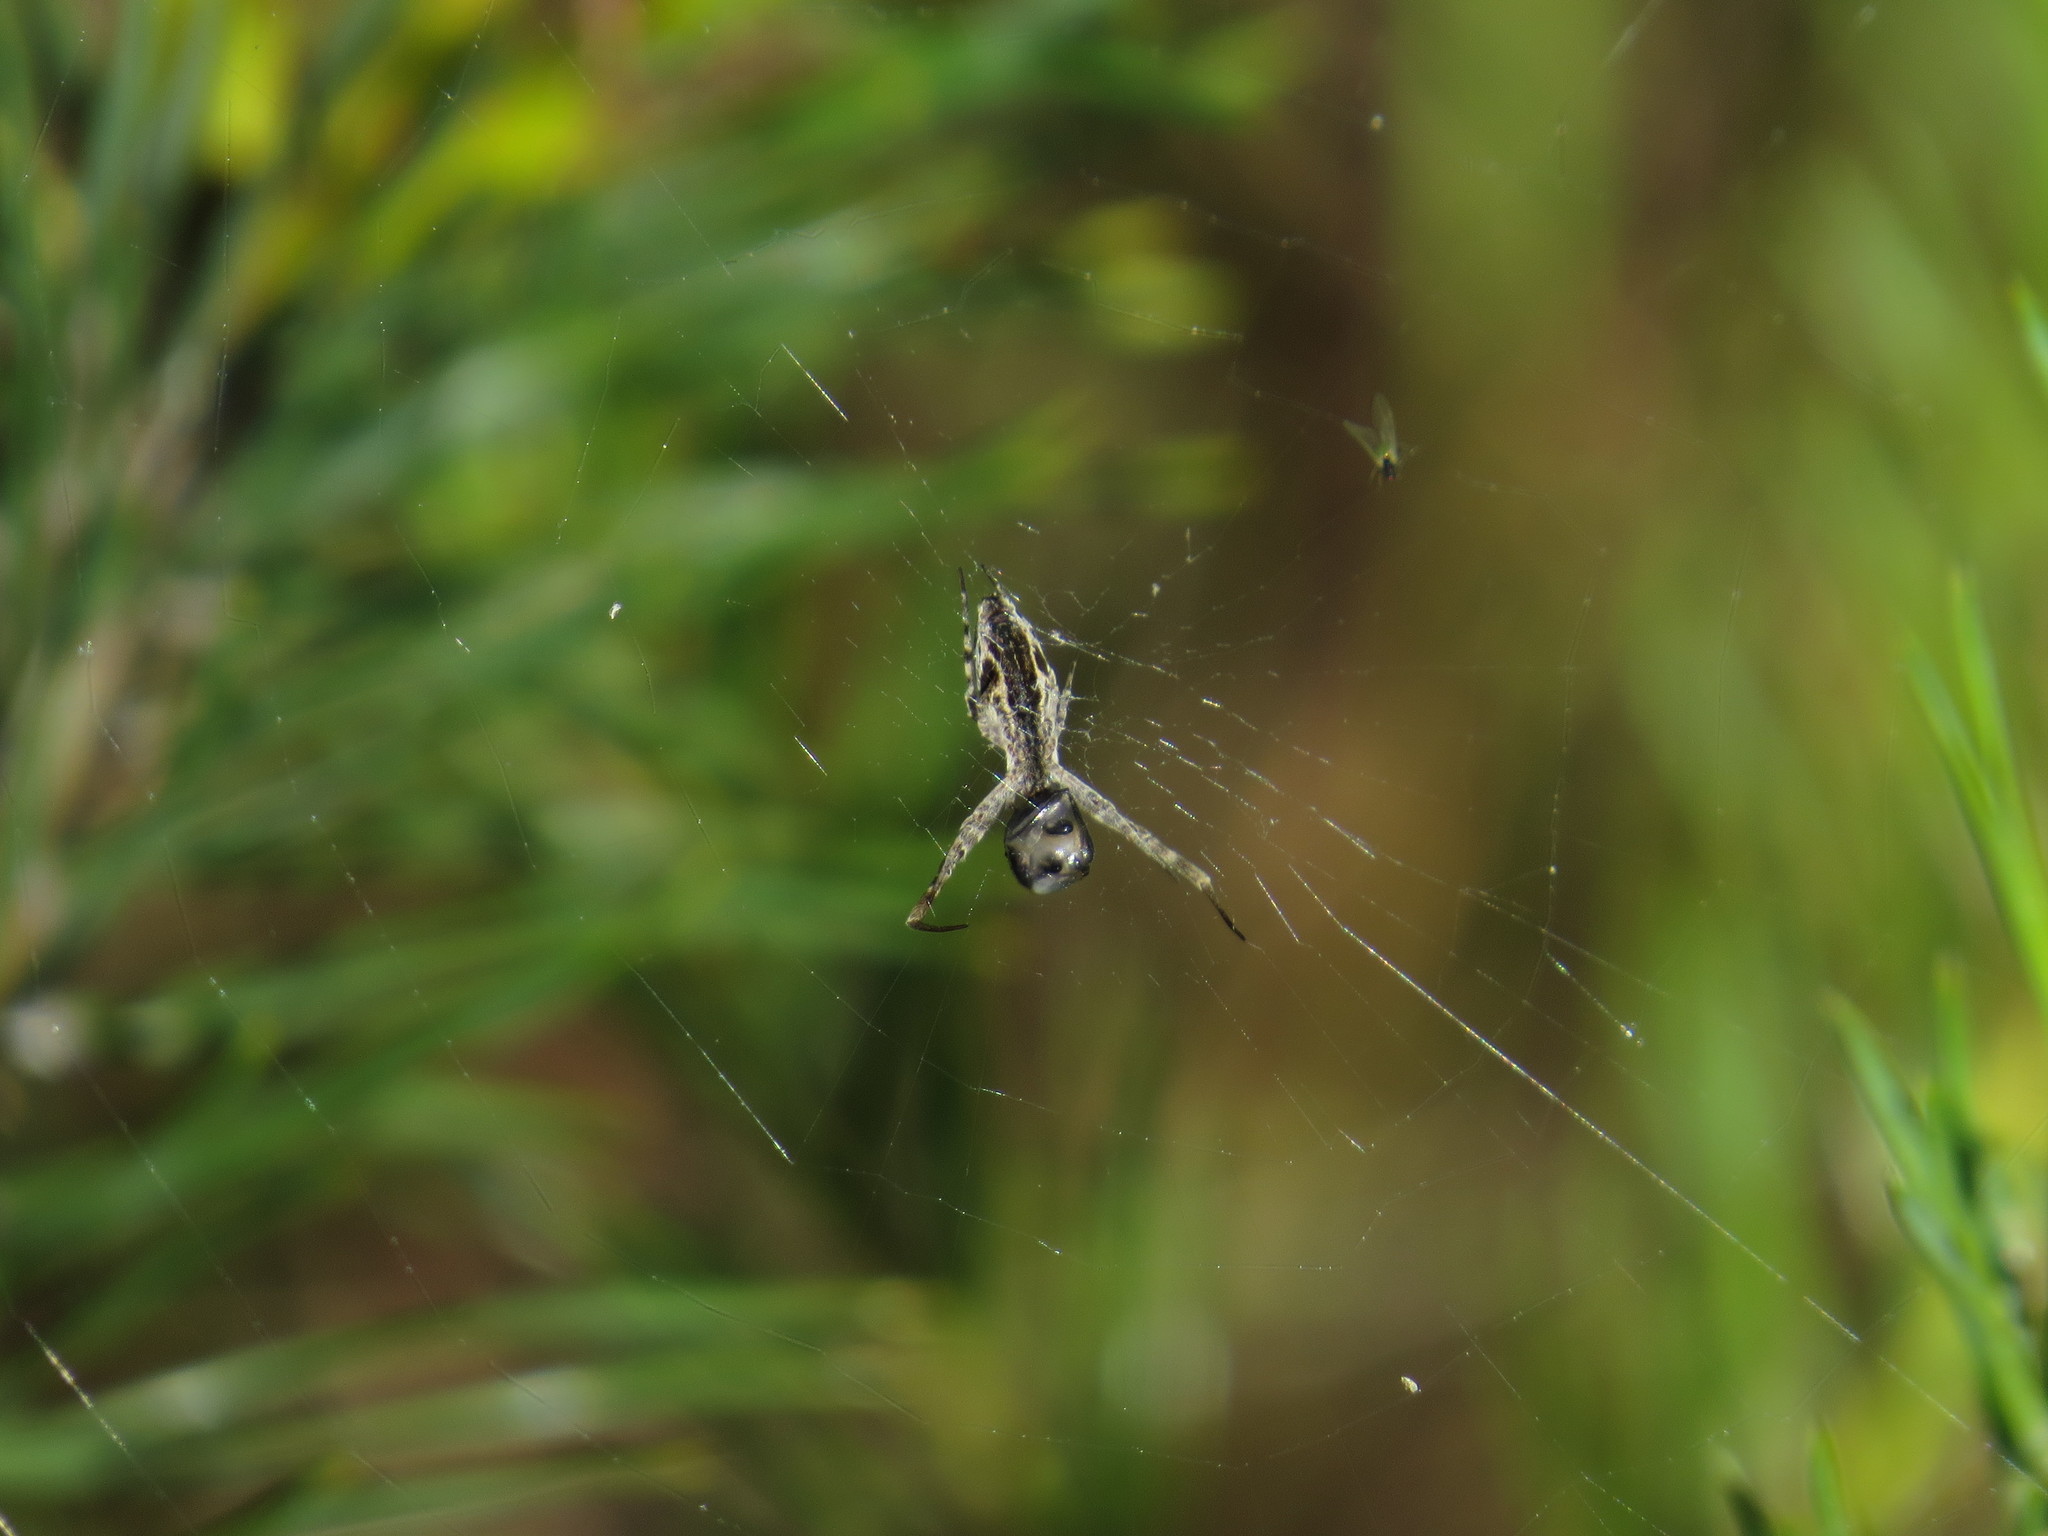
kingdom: Animalia
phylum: Arthropoda
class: Arachnida
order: Araneae
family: Uloboridae
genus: Uloborus
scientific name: Uloborus walckenaerius
